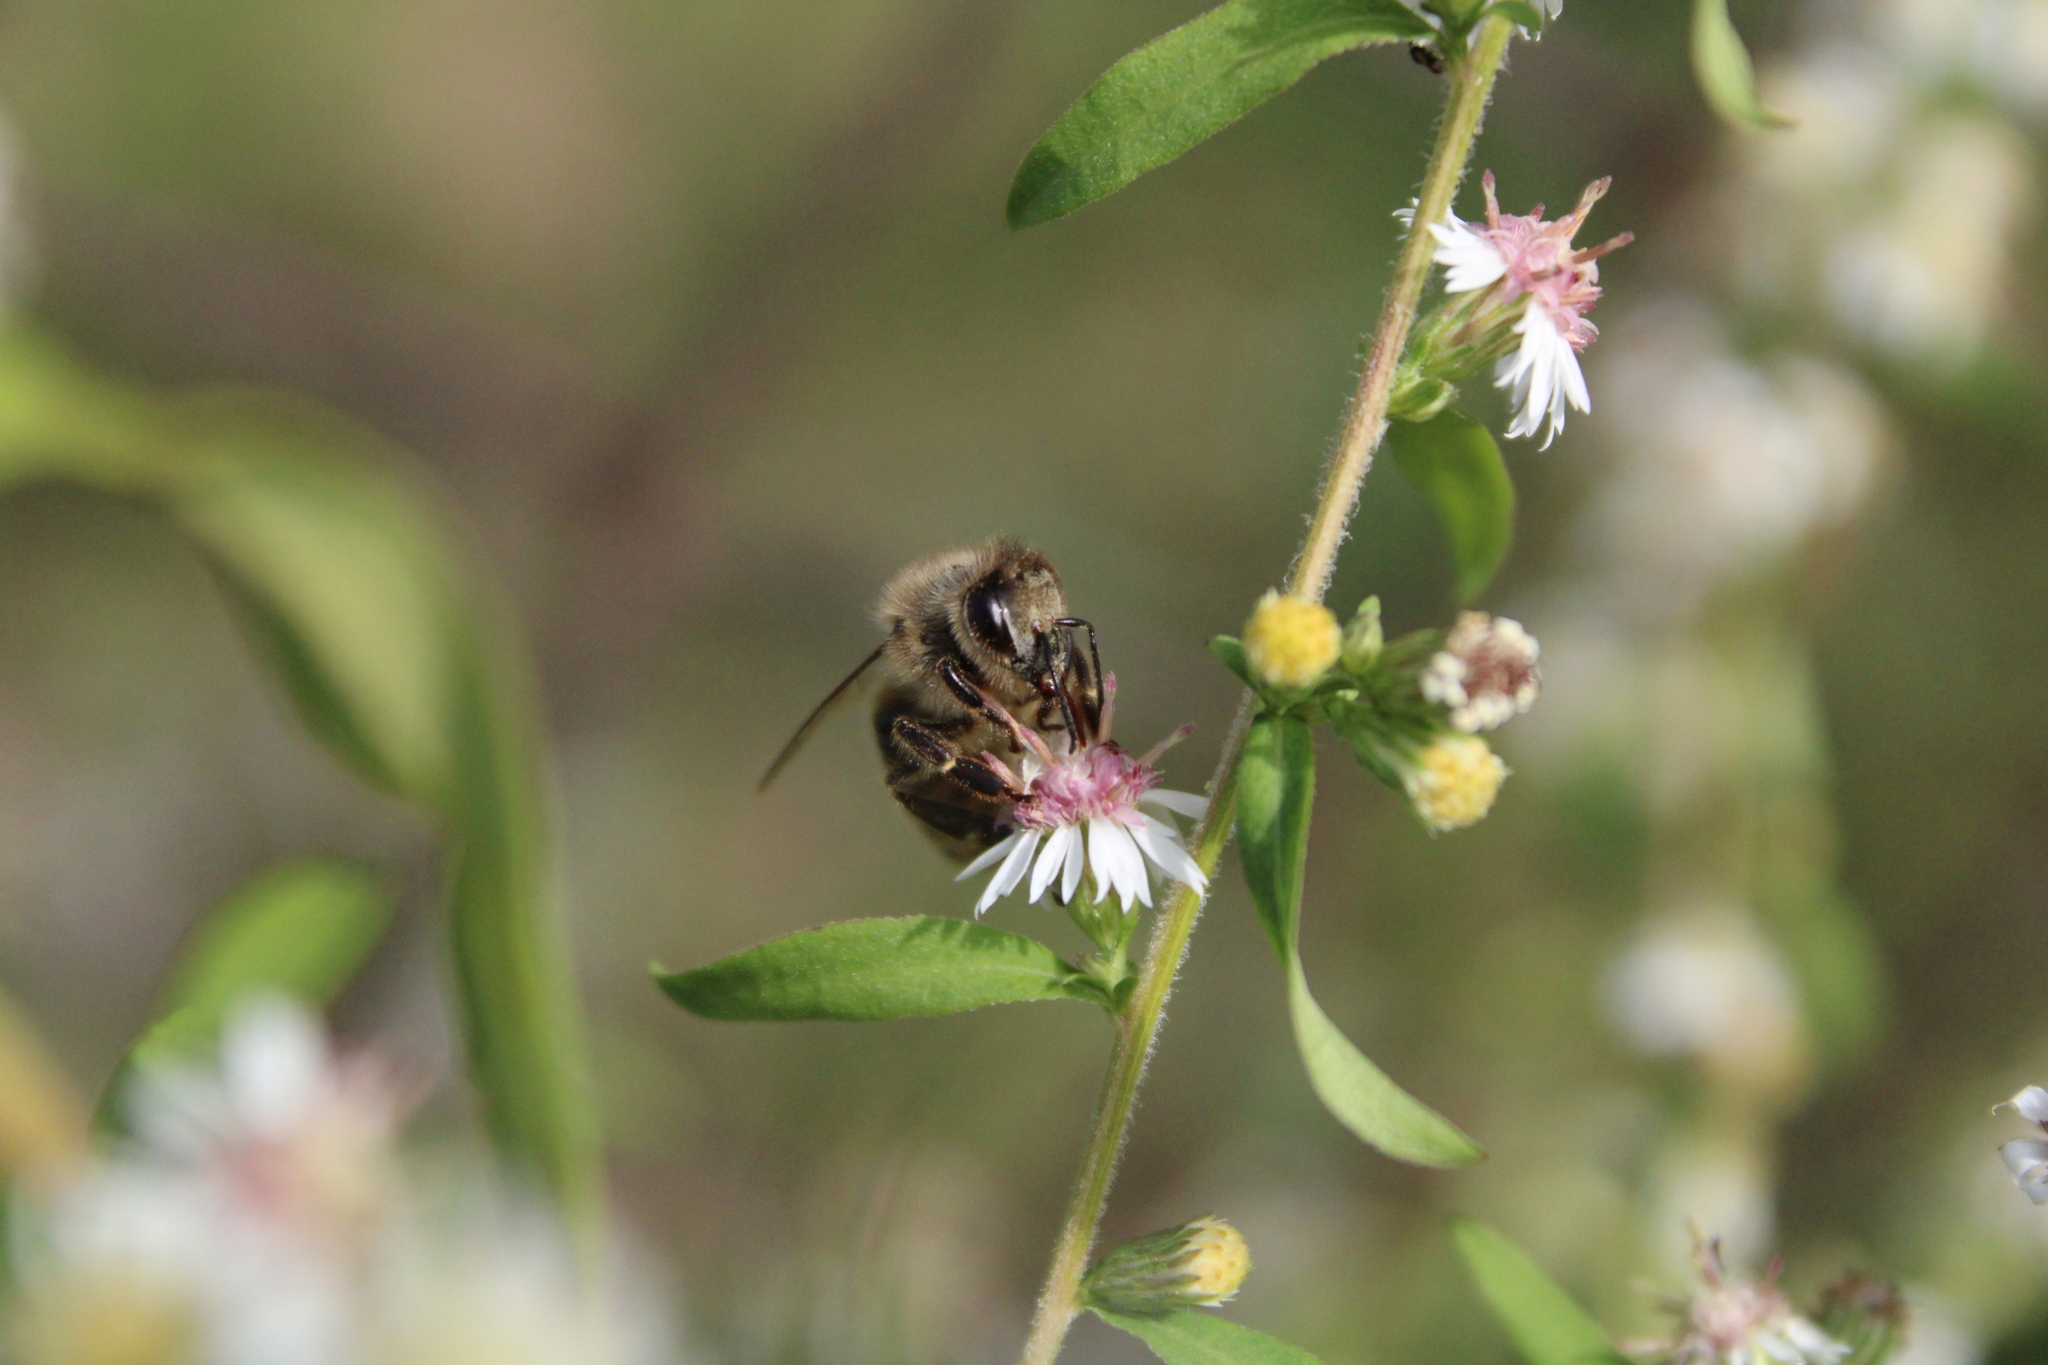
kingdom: Animalia
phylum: Arthropoda
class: Insecta
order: Hymenoptera
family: Apidae
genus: Apis
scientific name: Apis mellifera
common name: Honey bee
